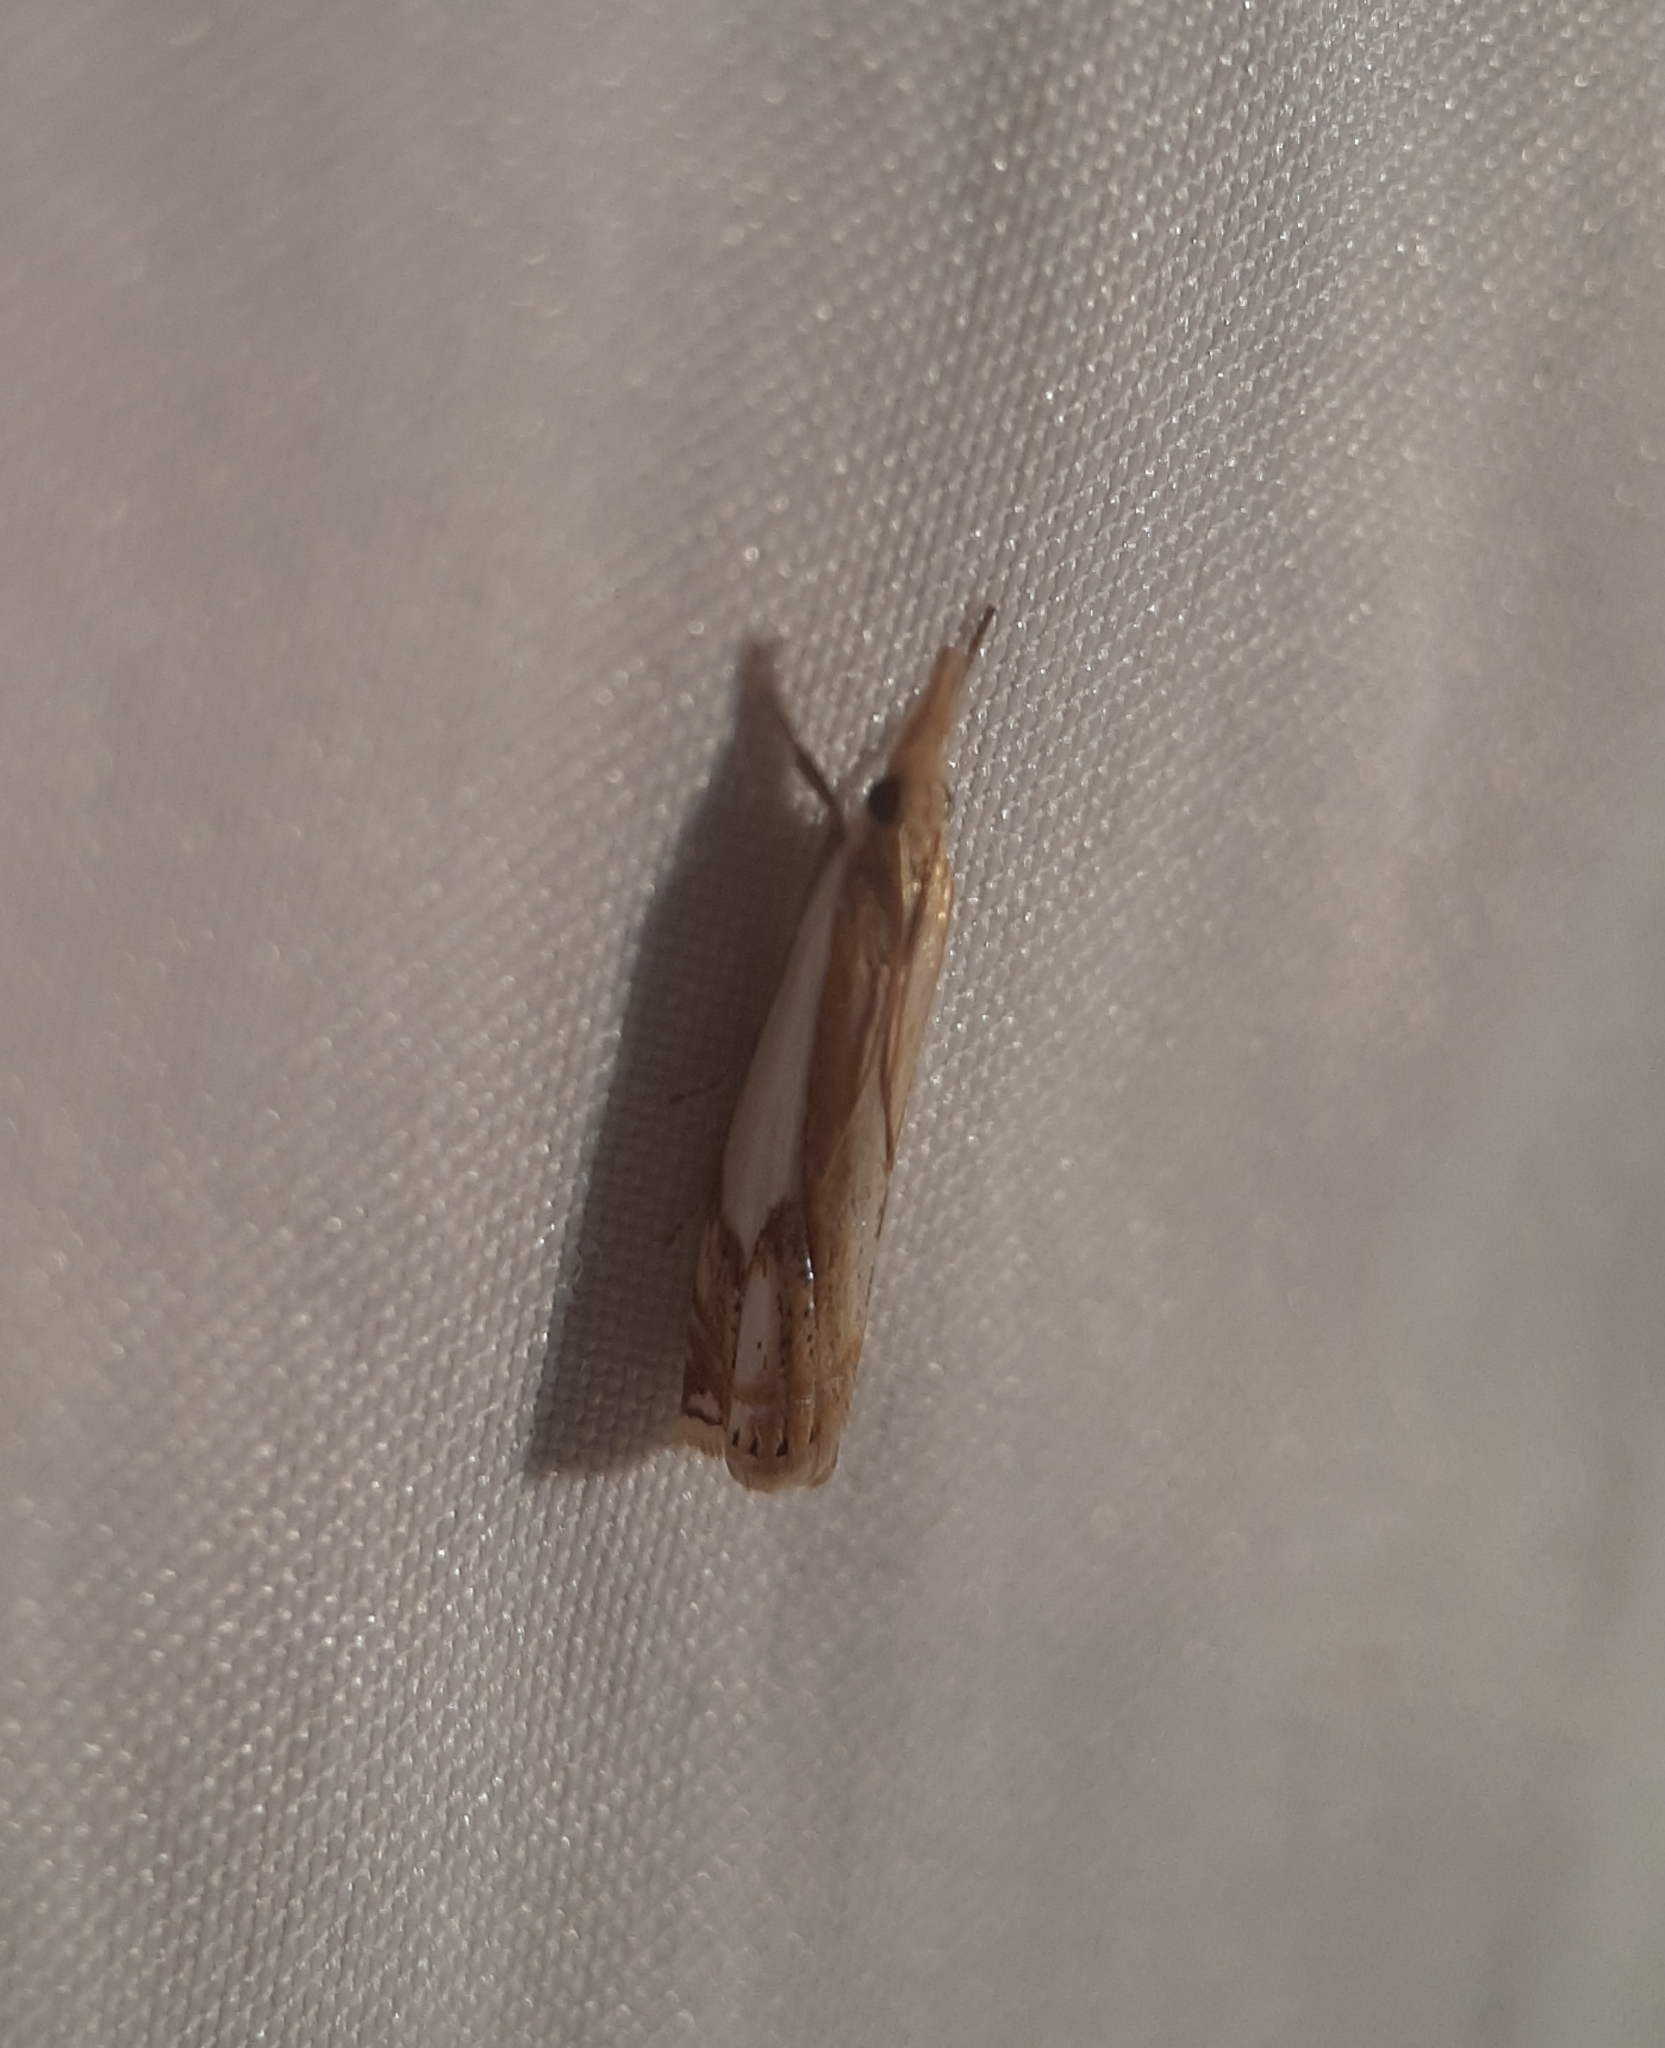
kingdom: Animalia
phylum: Arthropoda
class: Insecta
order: Lepidoptera
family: Crambidae
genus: Crambus
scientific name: Crambus agitatellus
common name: Double-banded grass-veneer
